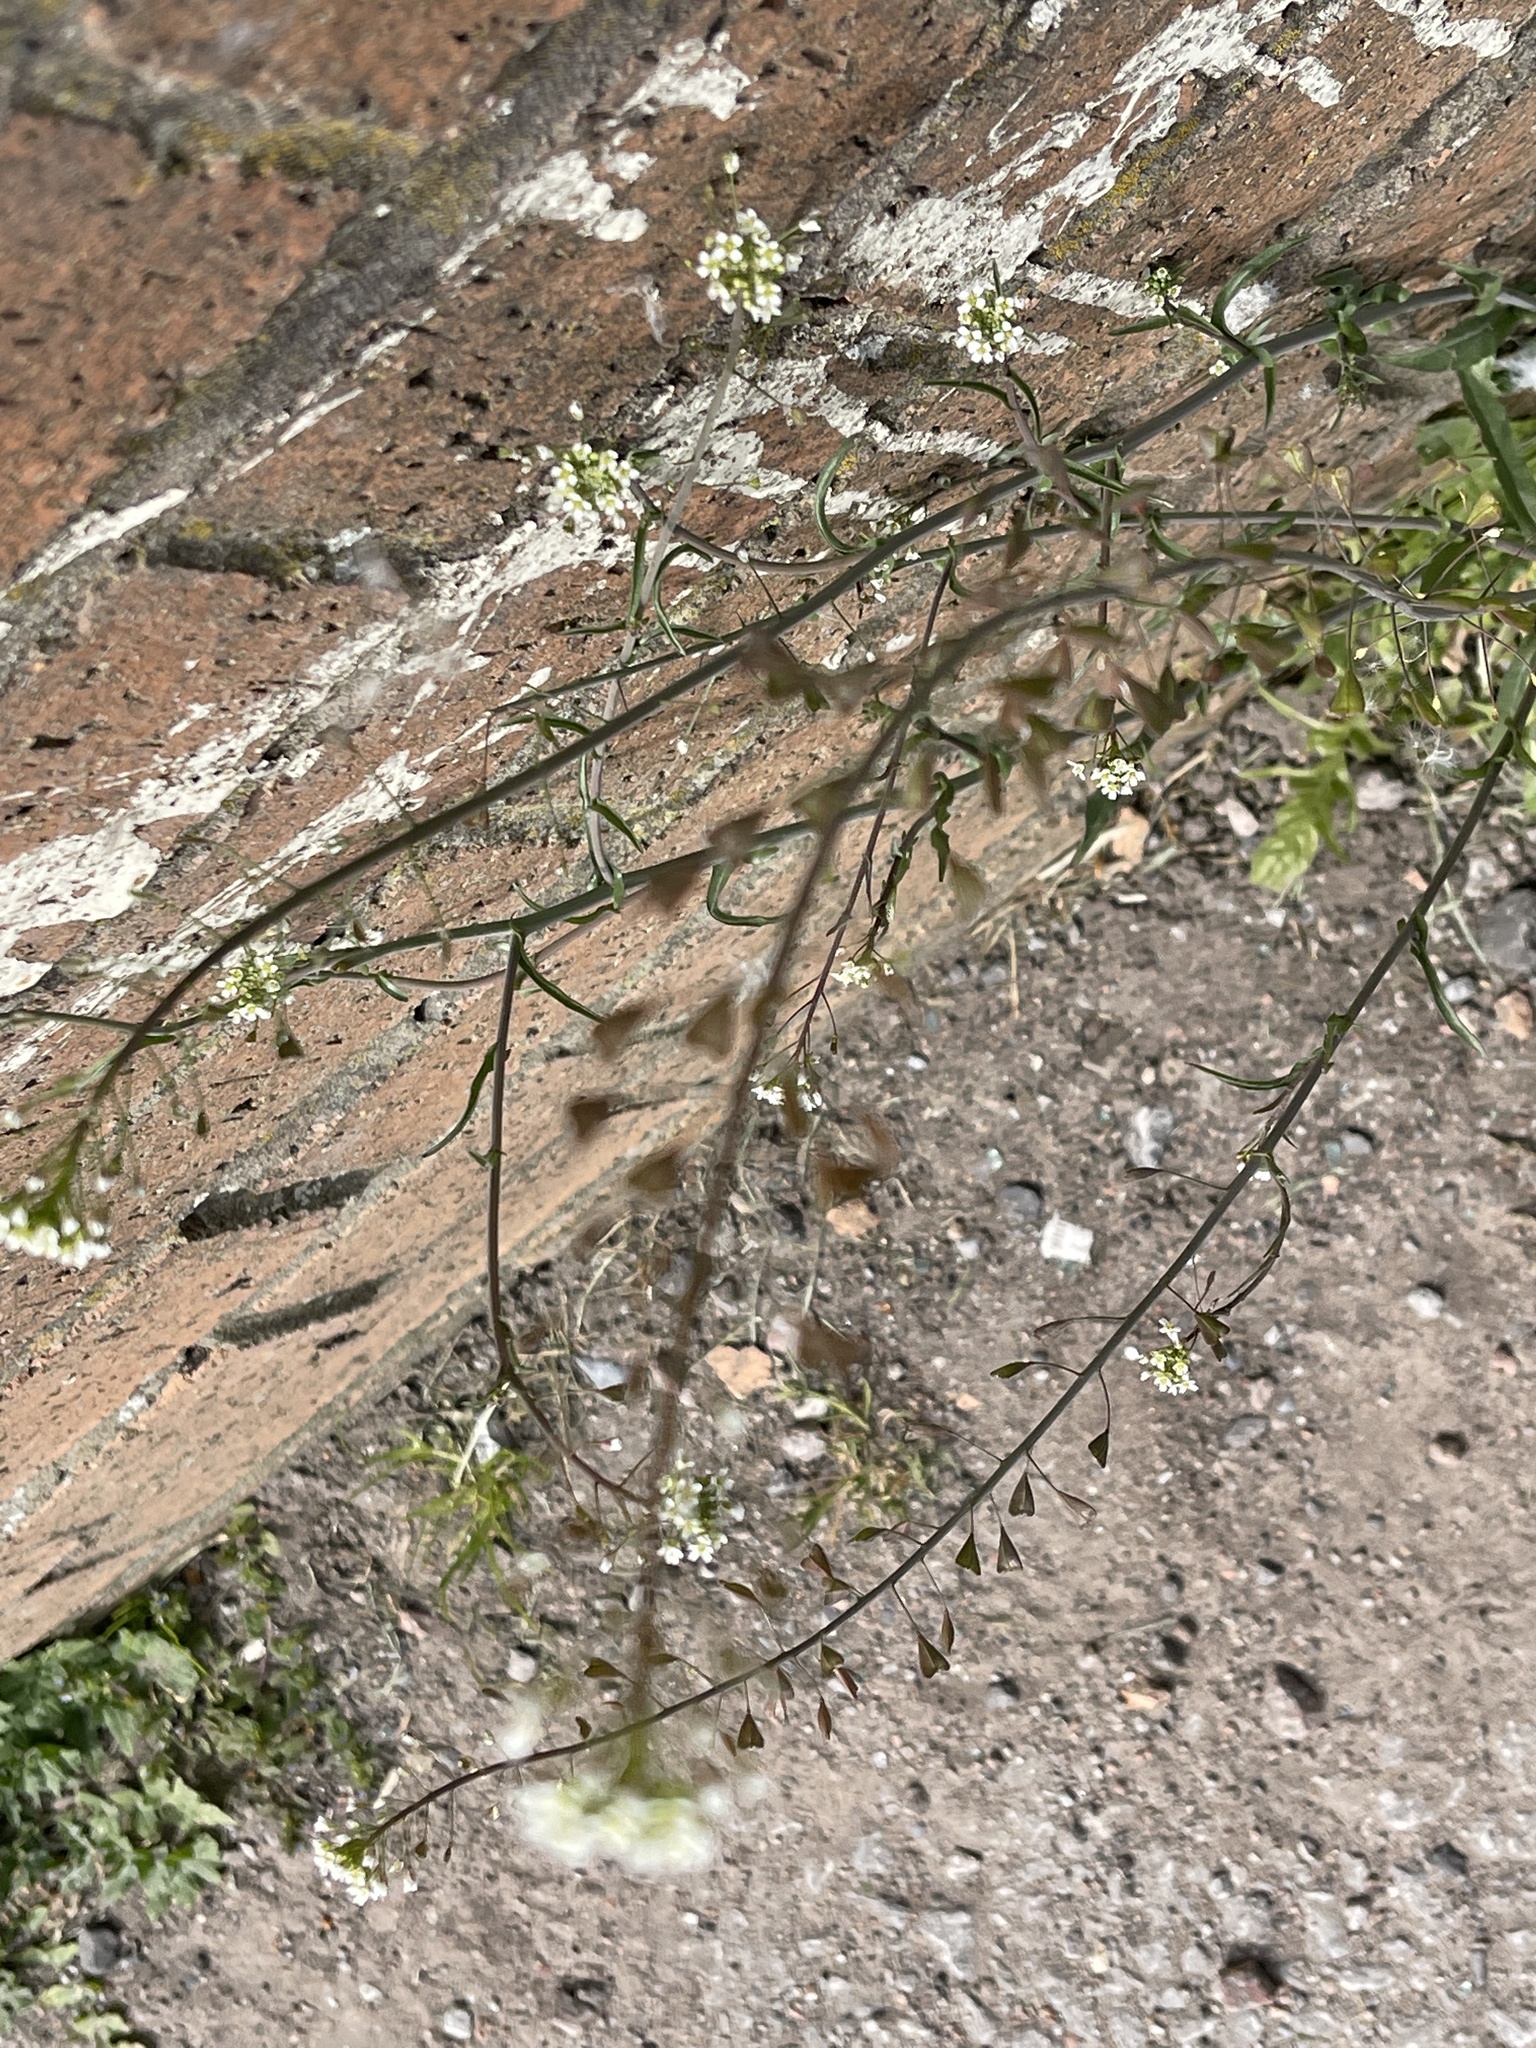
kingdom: Plantae
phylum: Tracheophyta
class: Magnoliopsida
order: Brassicales
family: Brassicaceae
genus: Capsella
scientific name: Capsella bursa-pastoris
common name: Shepherd's purse
